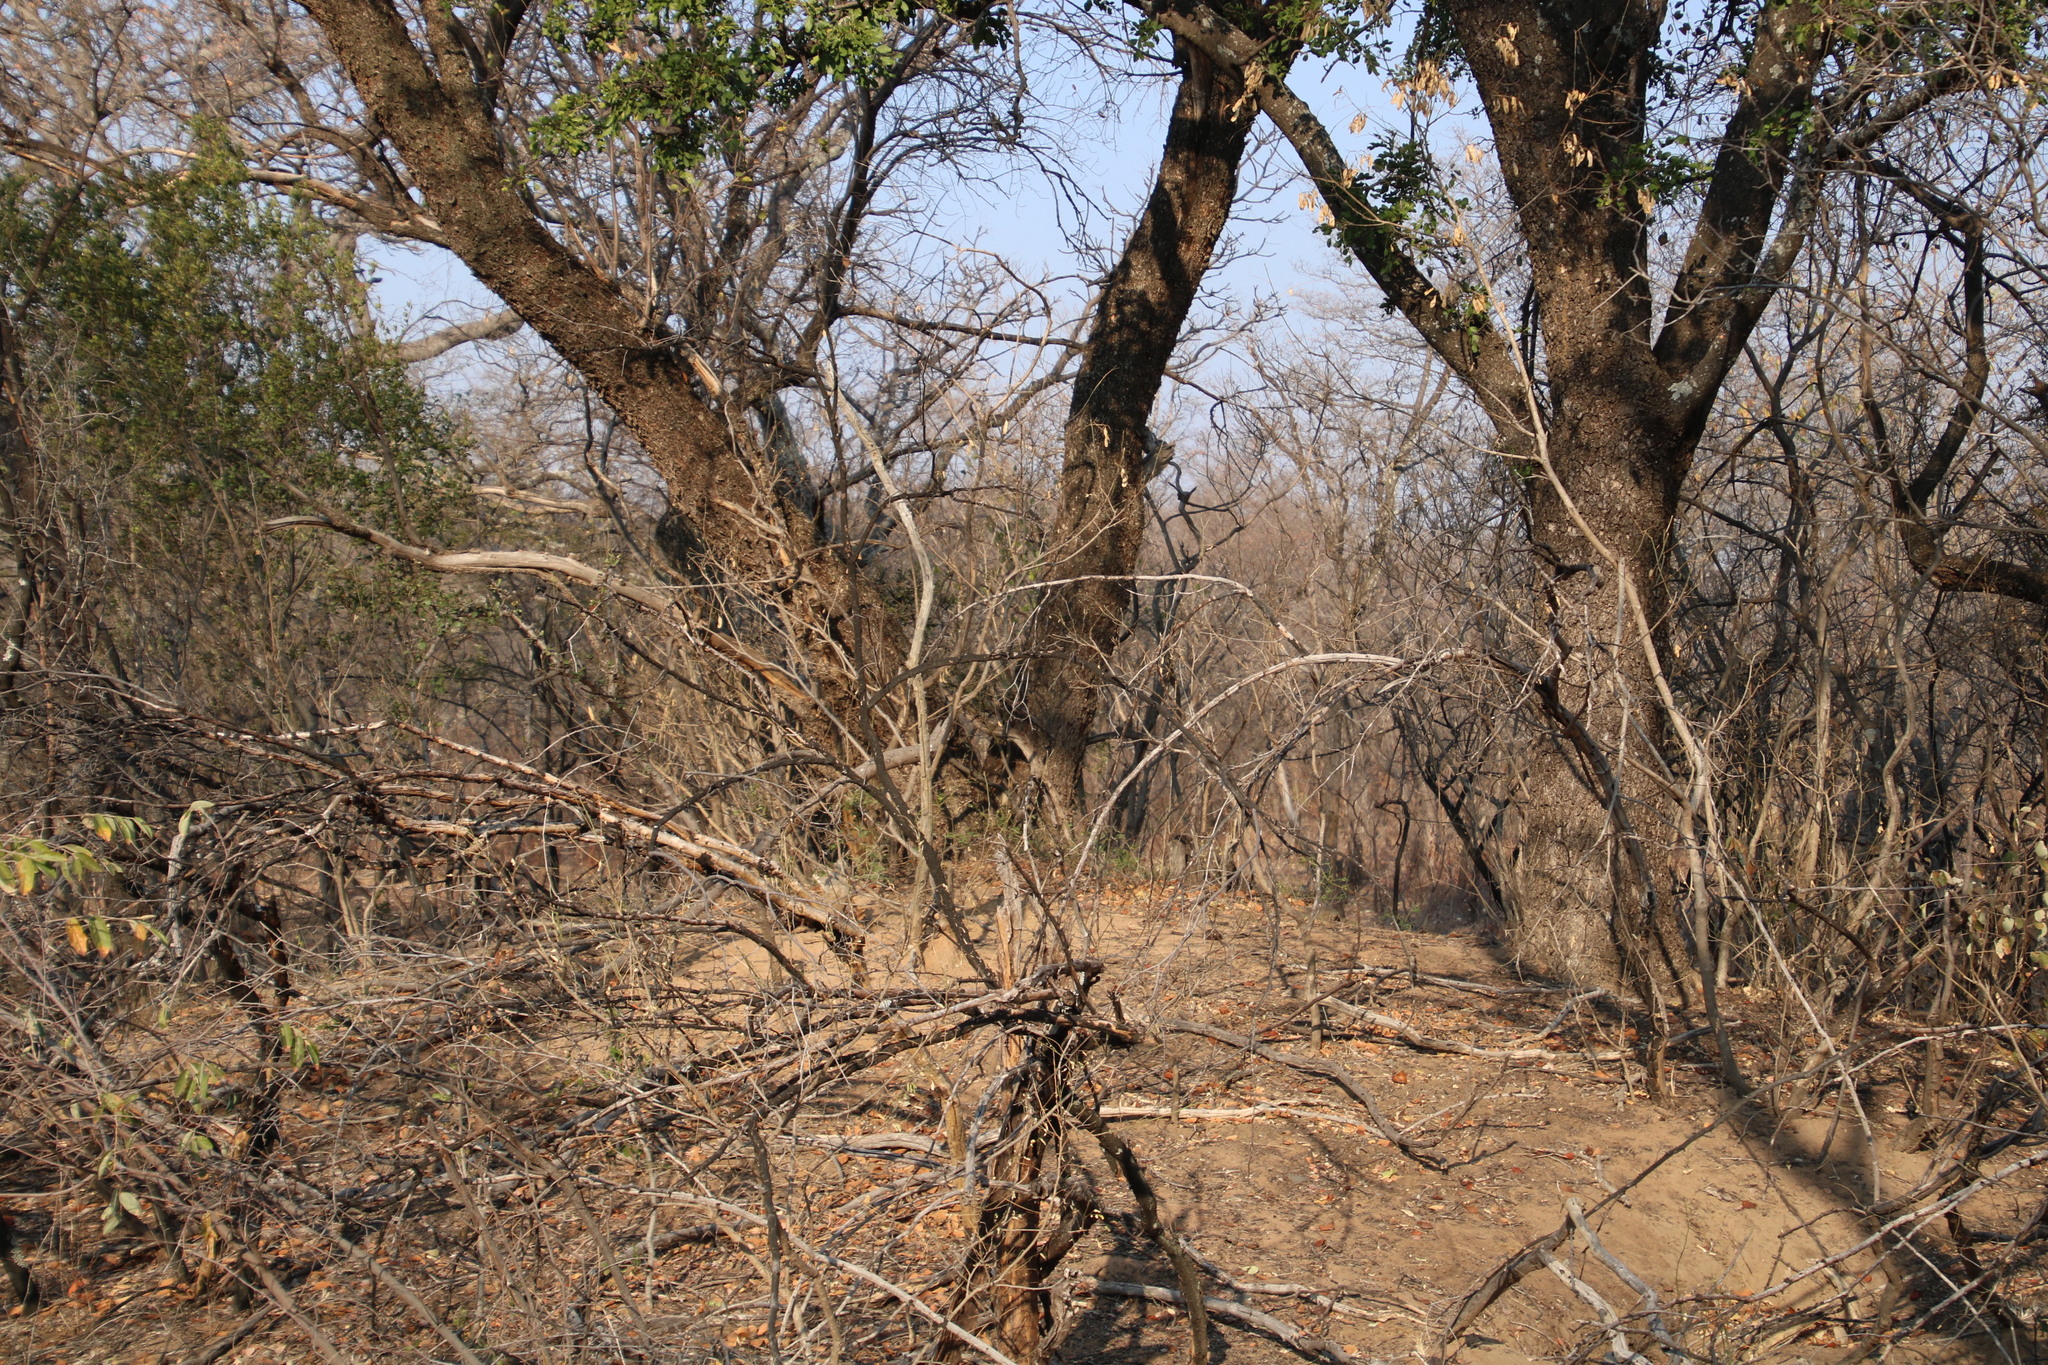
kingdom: Plantae
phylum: Tracheophyta
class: Magnoliopsida
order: Fabales
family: Fabaceae
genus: Schotia
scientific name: Schotia brachypetala
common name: Weeping boer-bean
